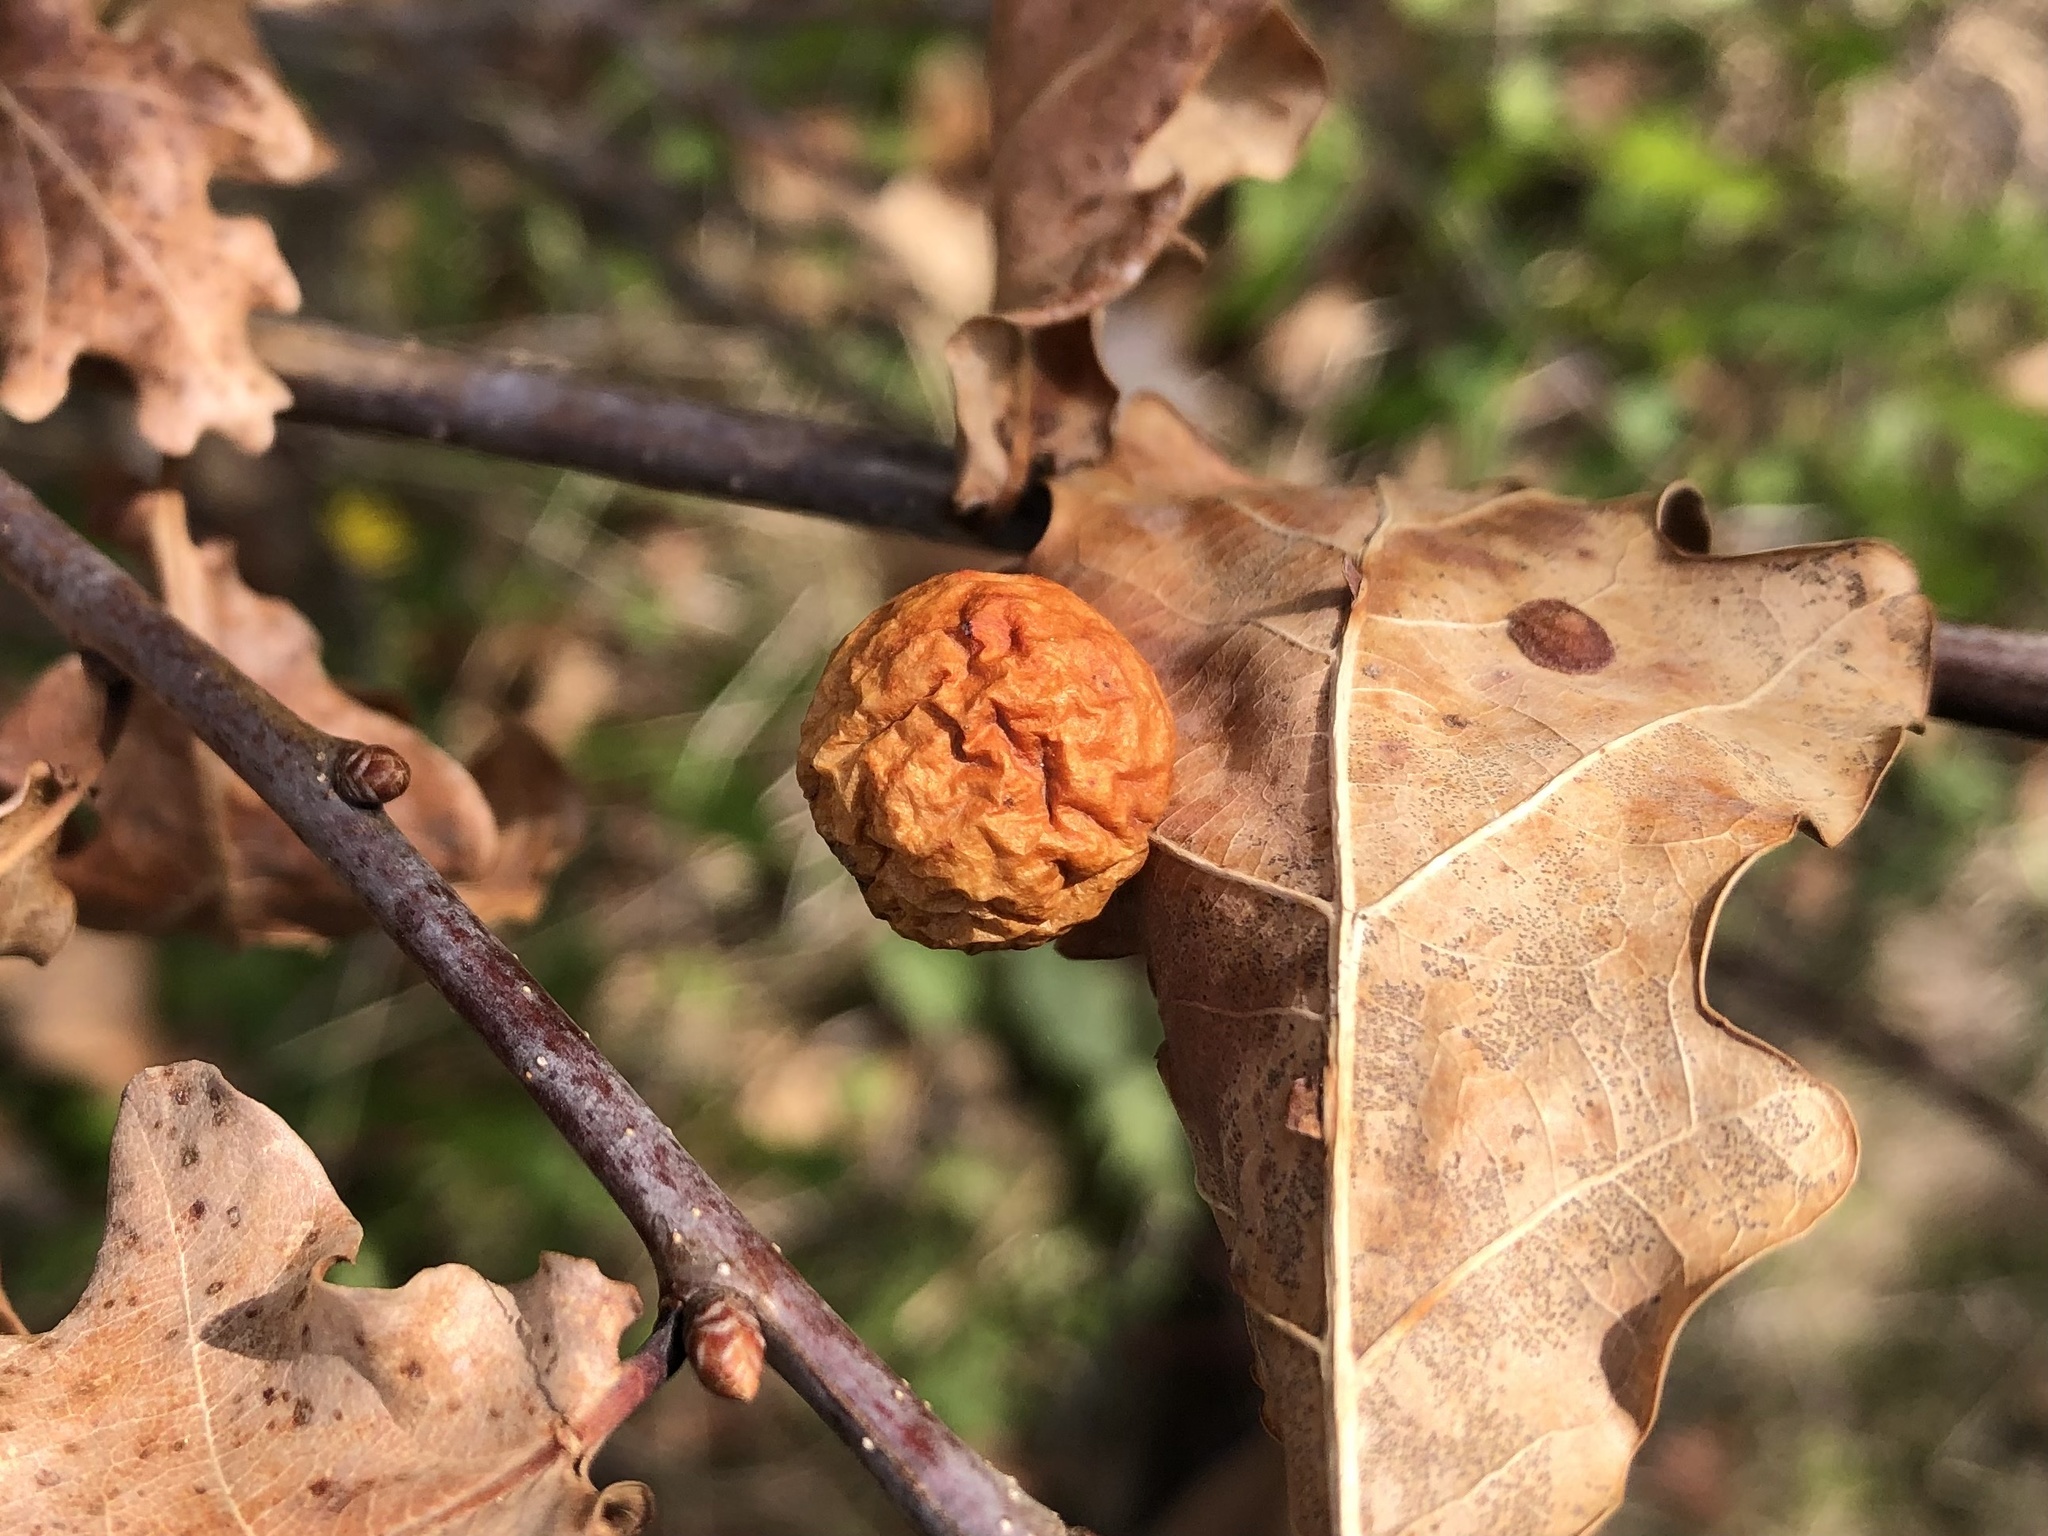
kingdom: Animalia
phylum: Arthropoda
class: Insecta
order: Hymenoptera
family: Cynipidae
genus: Cynips
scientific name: Cynips quercusfolii
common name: Cherry gall
